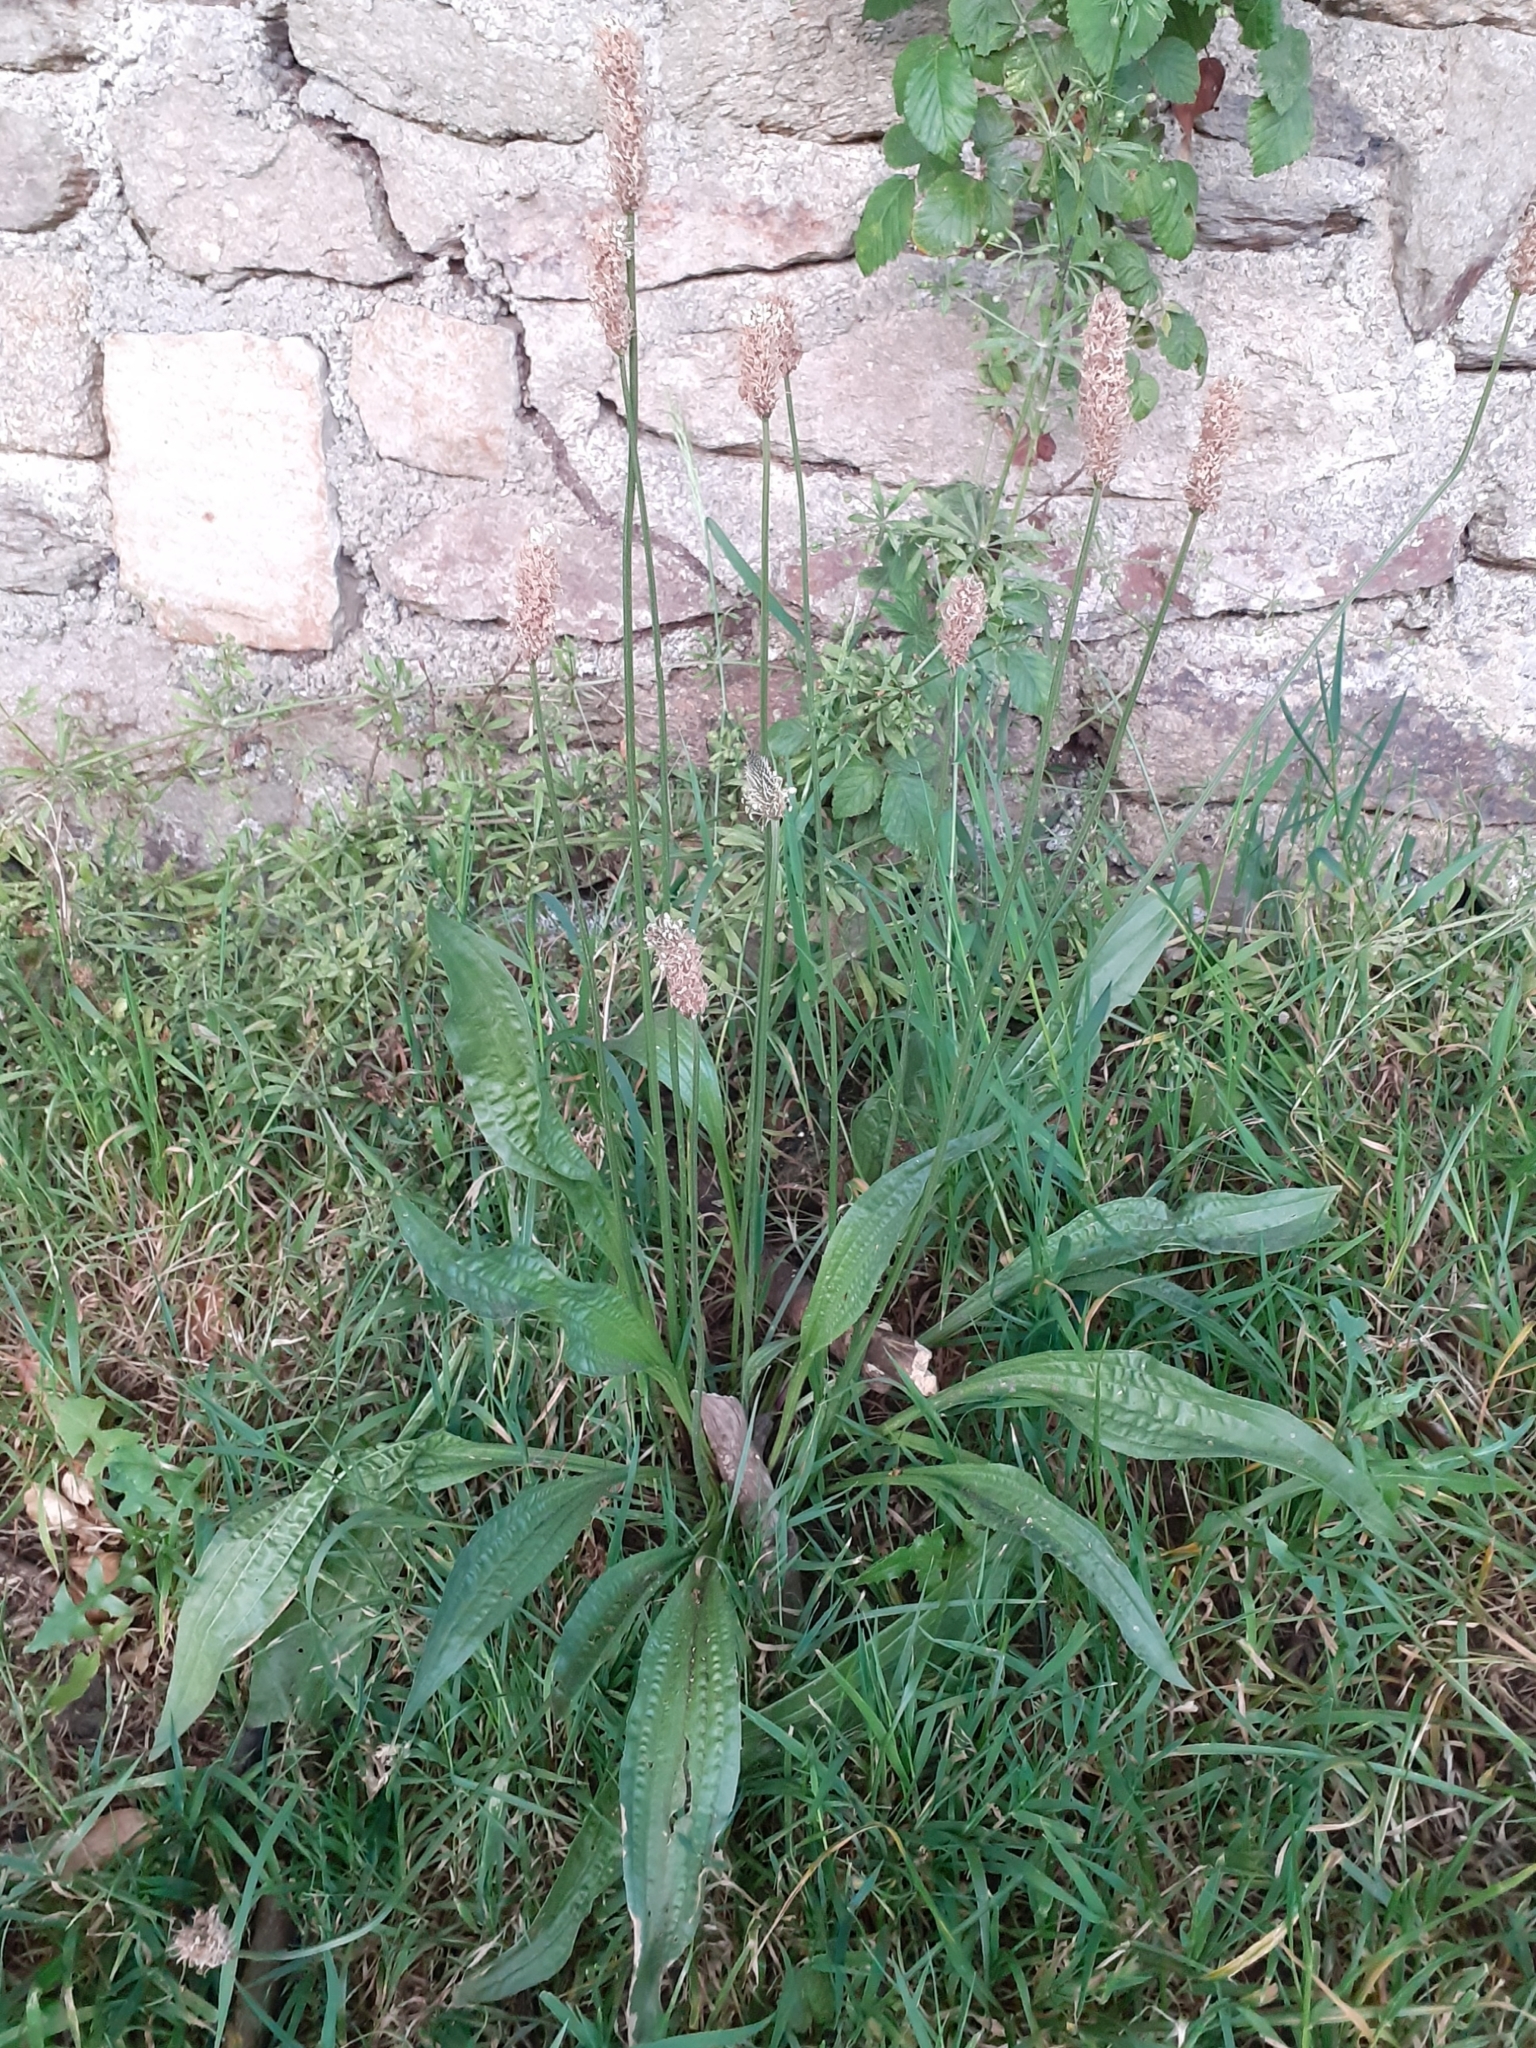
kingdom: Plantae
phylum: Tracheophyta
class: Magnoliopsida
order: Lamiales
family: Plantaginaceae
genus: Plantago
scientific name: Plantago lanceolata
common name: Ribwort plantain
